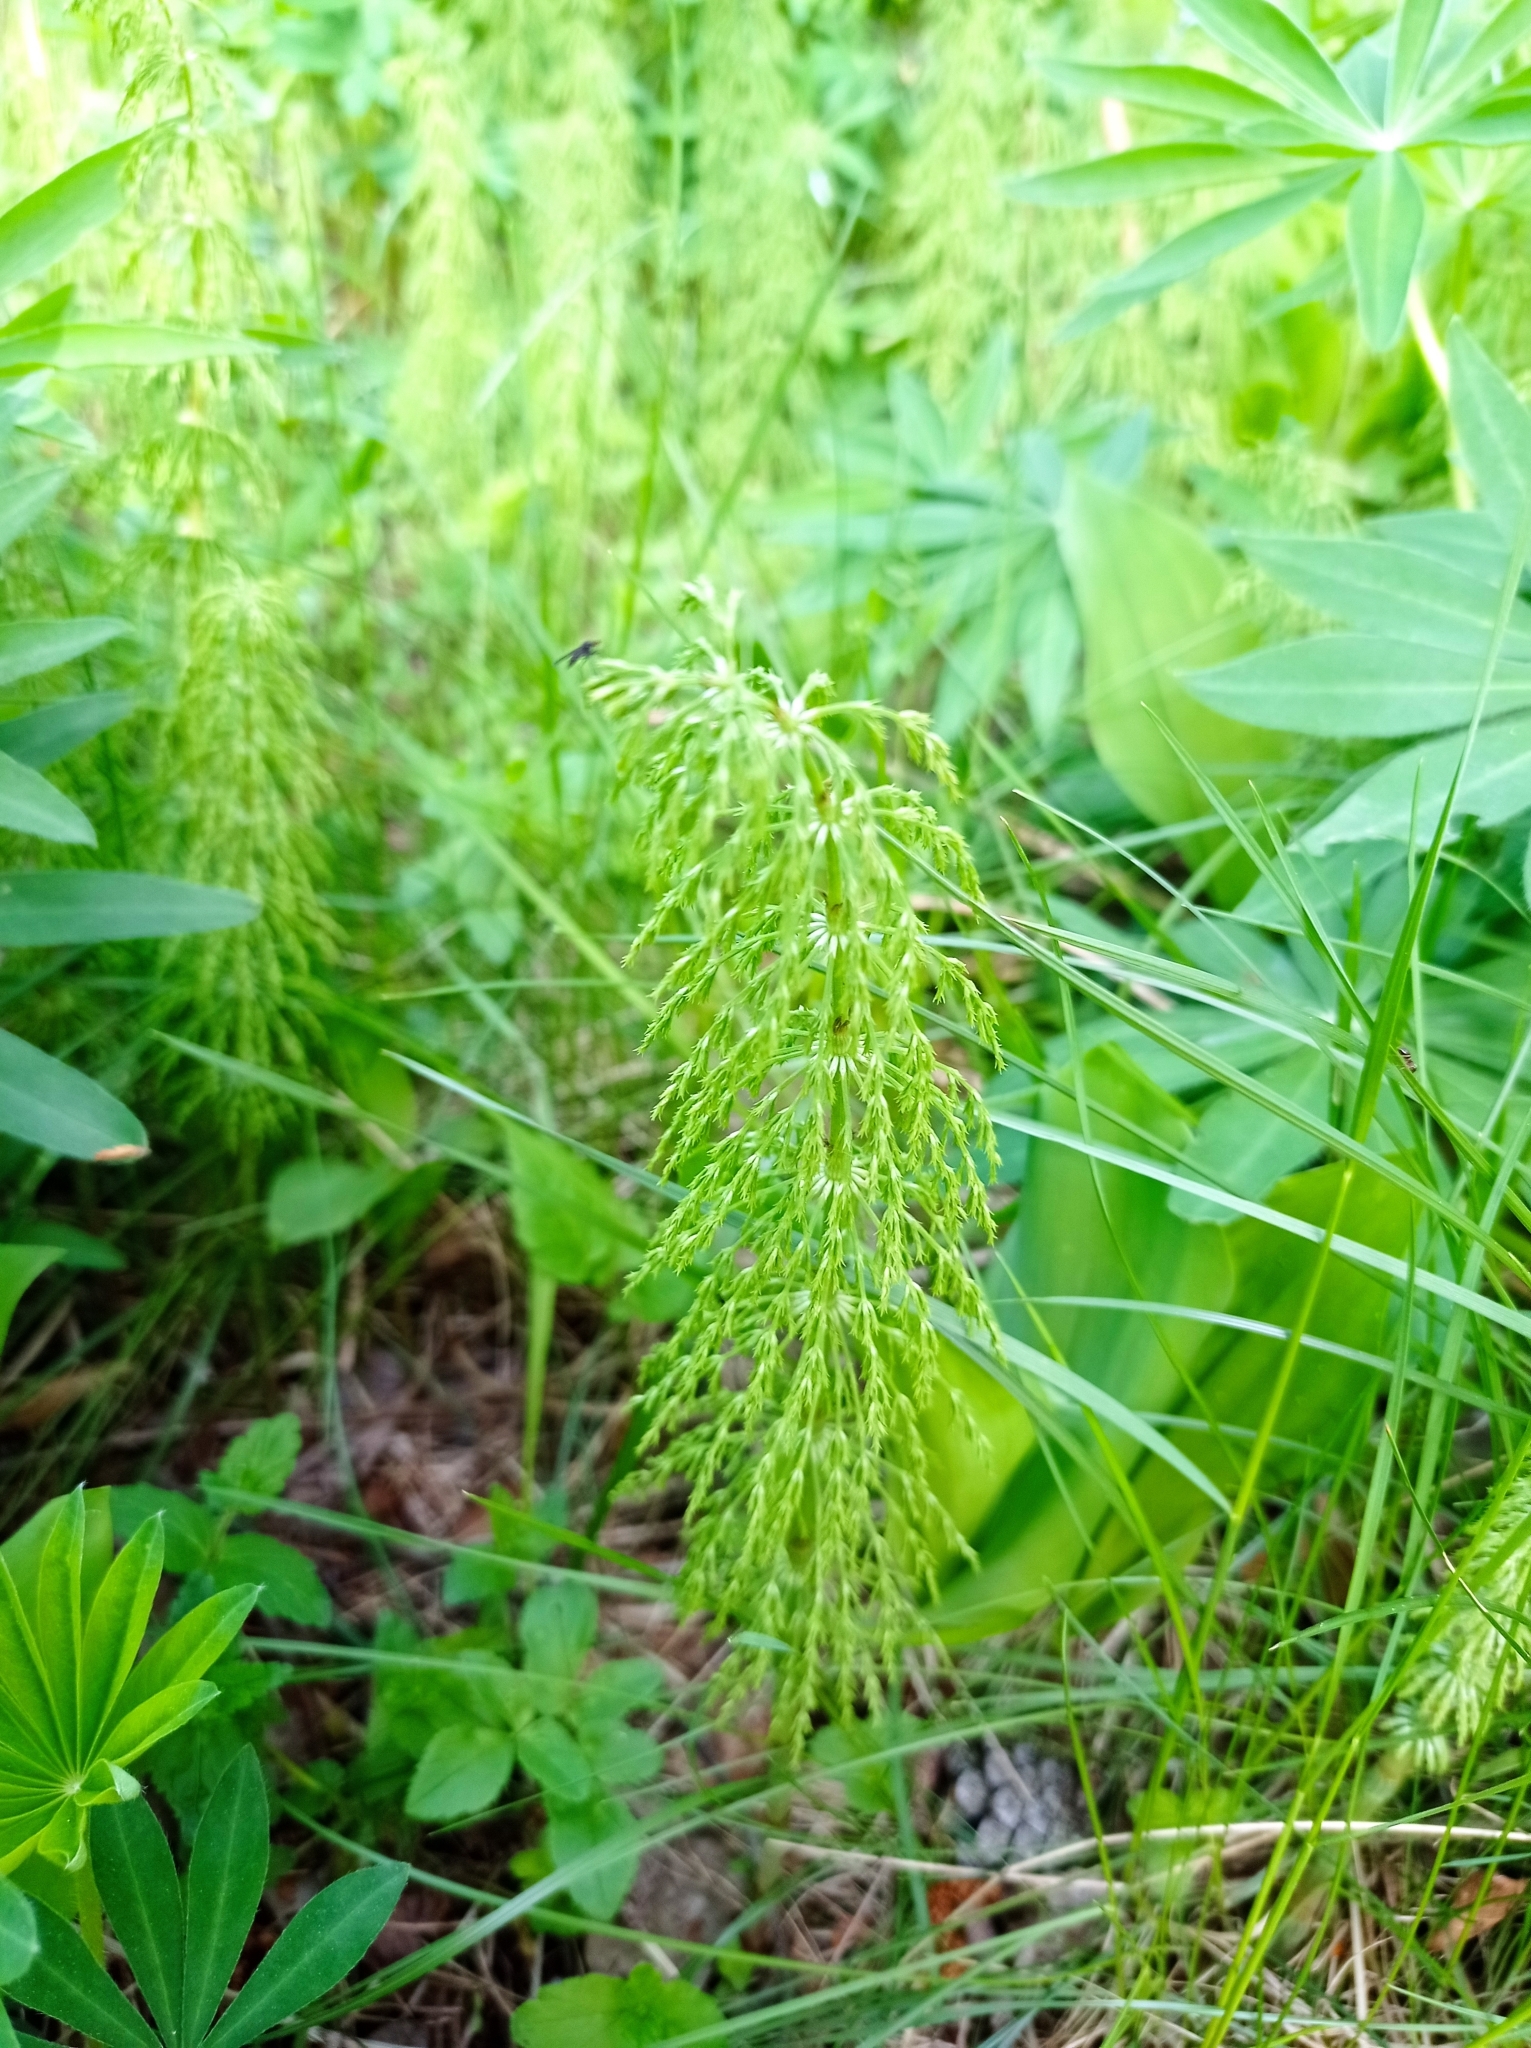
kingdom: Plantae
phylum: Tracheophyta
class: Polypodiopsida
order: Equisetales
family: Equisetaceae
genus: Equisetum
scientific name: Equisetum sylvaticum
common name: Wood horsetail
